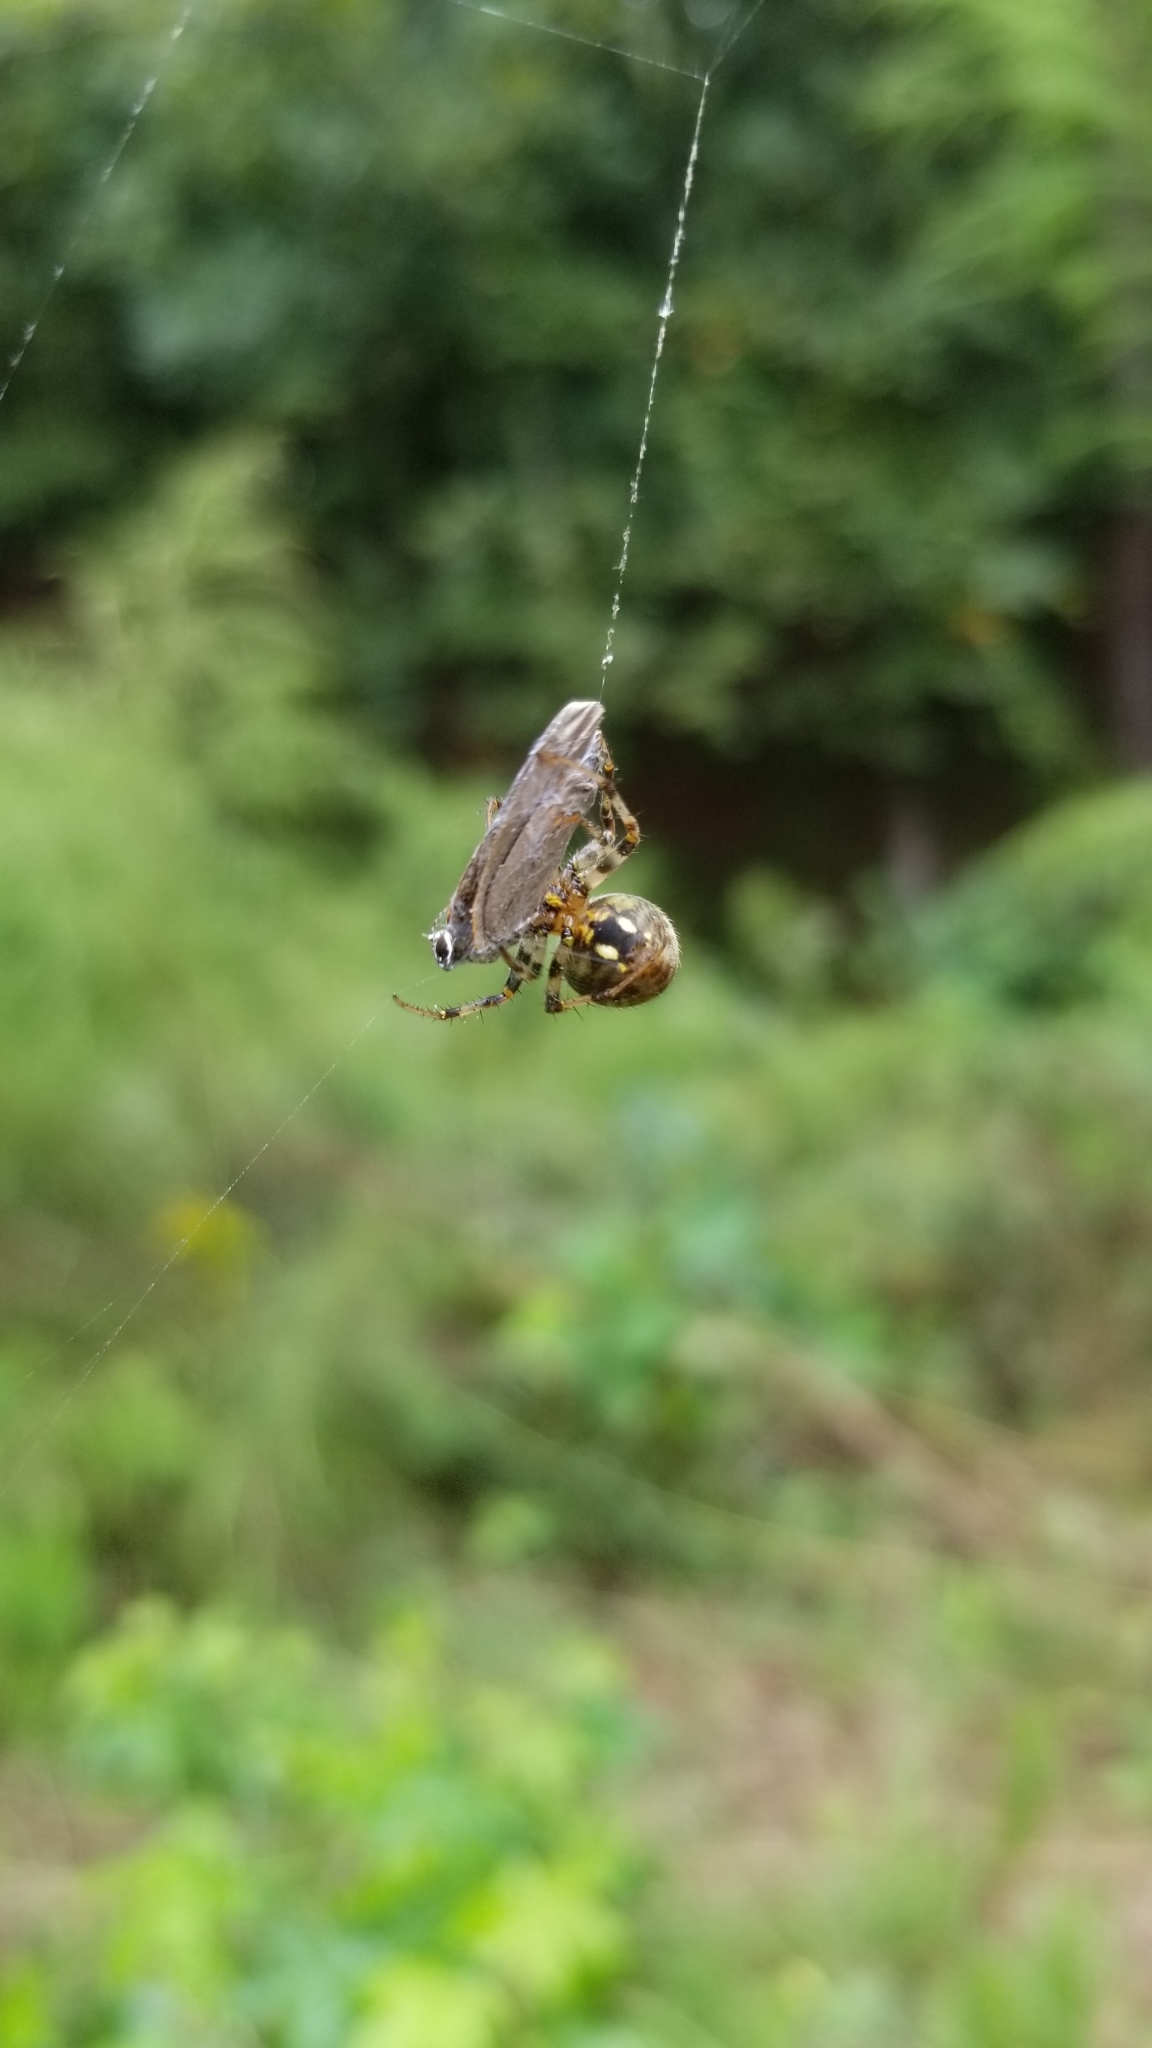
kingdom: Animalia
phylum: Arthropoda
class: Arachnida
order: Araneae
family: Araneidae
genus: Neoscona
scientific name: Neoscona arabesca
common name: Orb weavers
